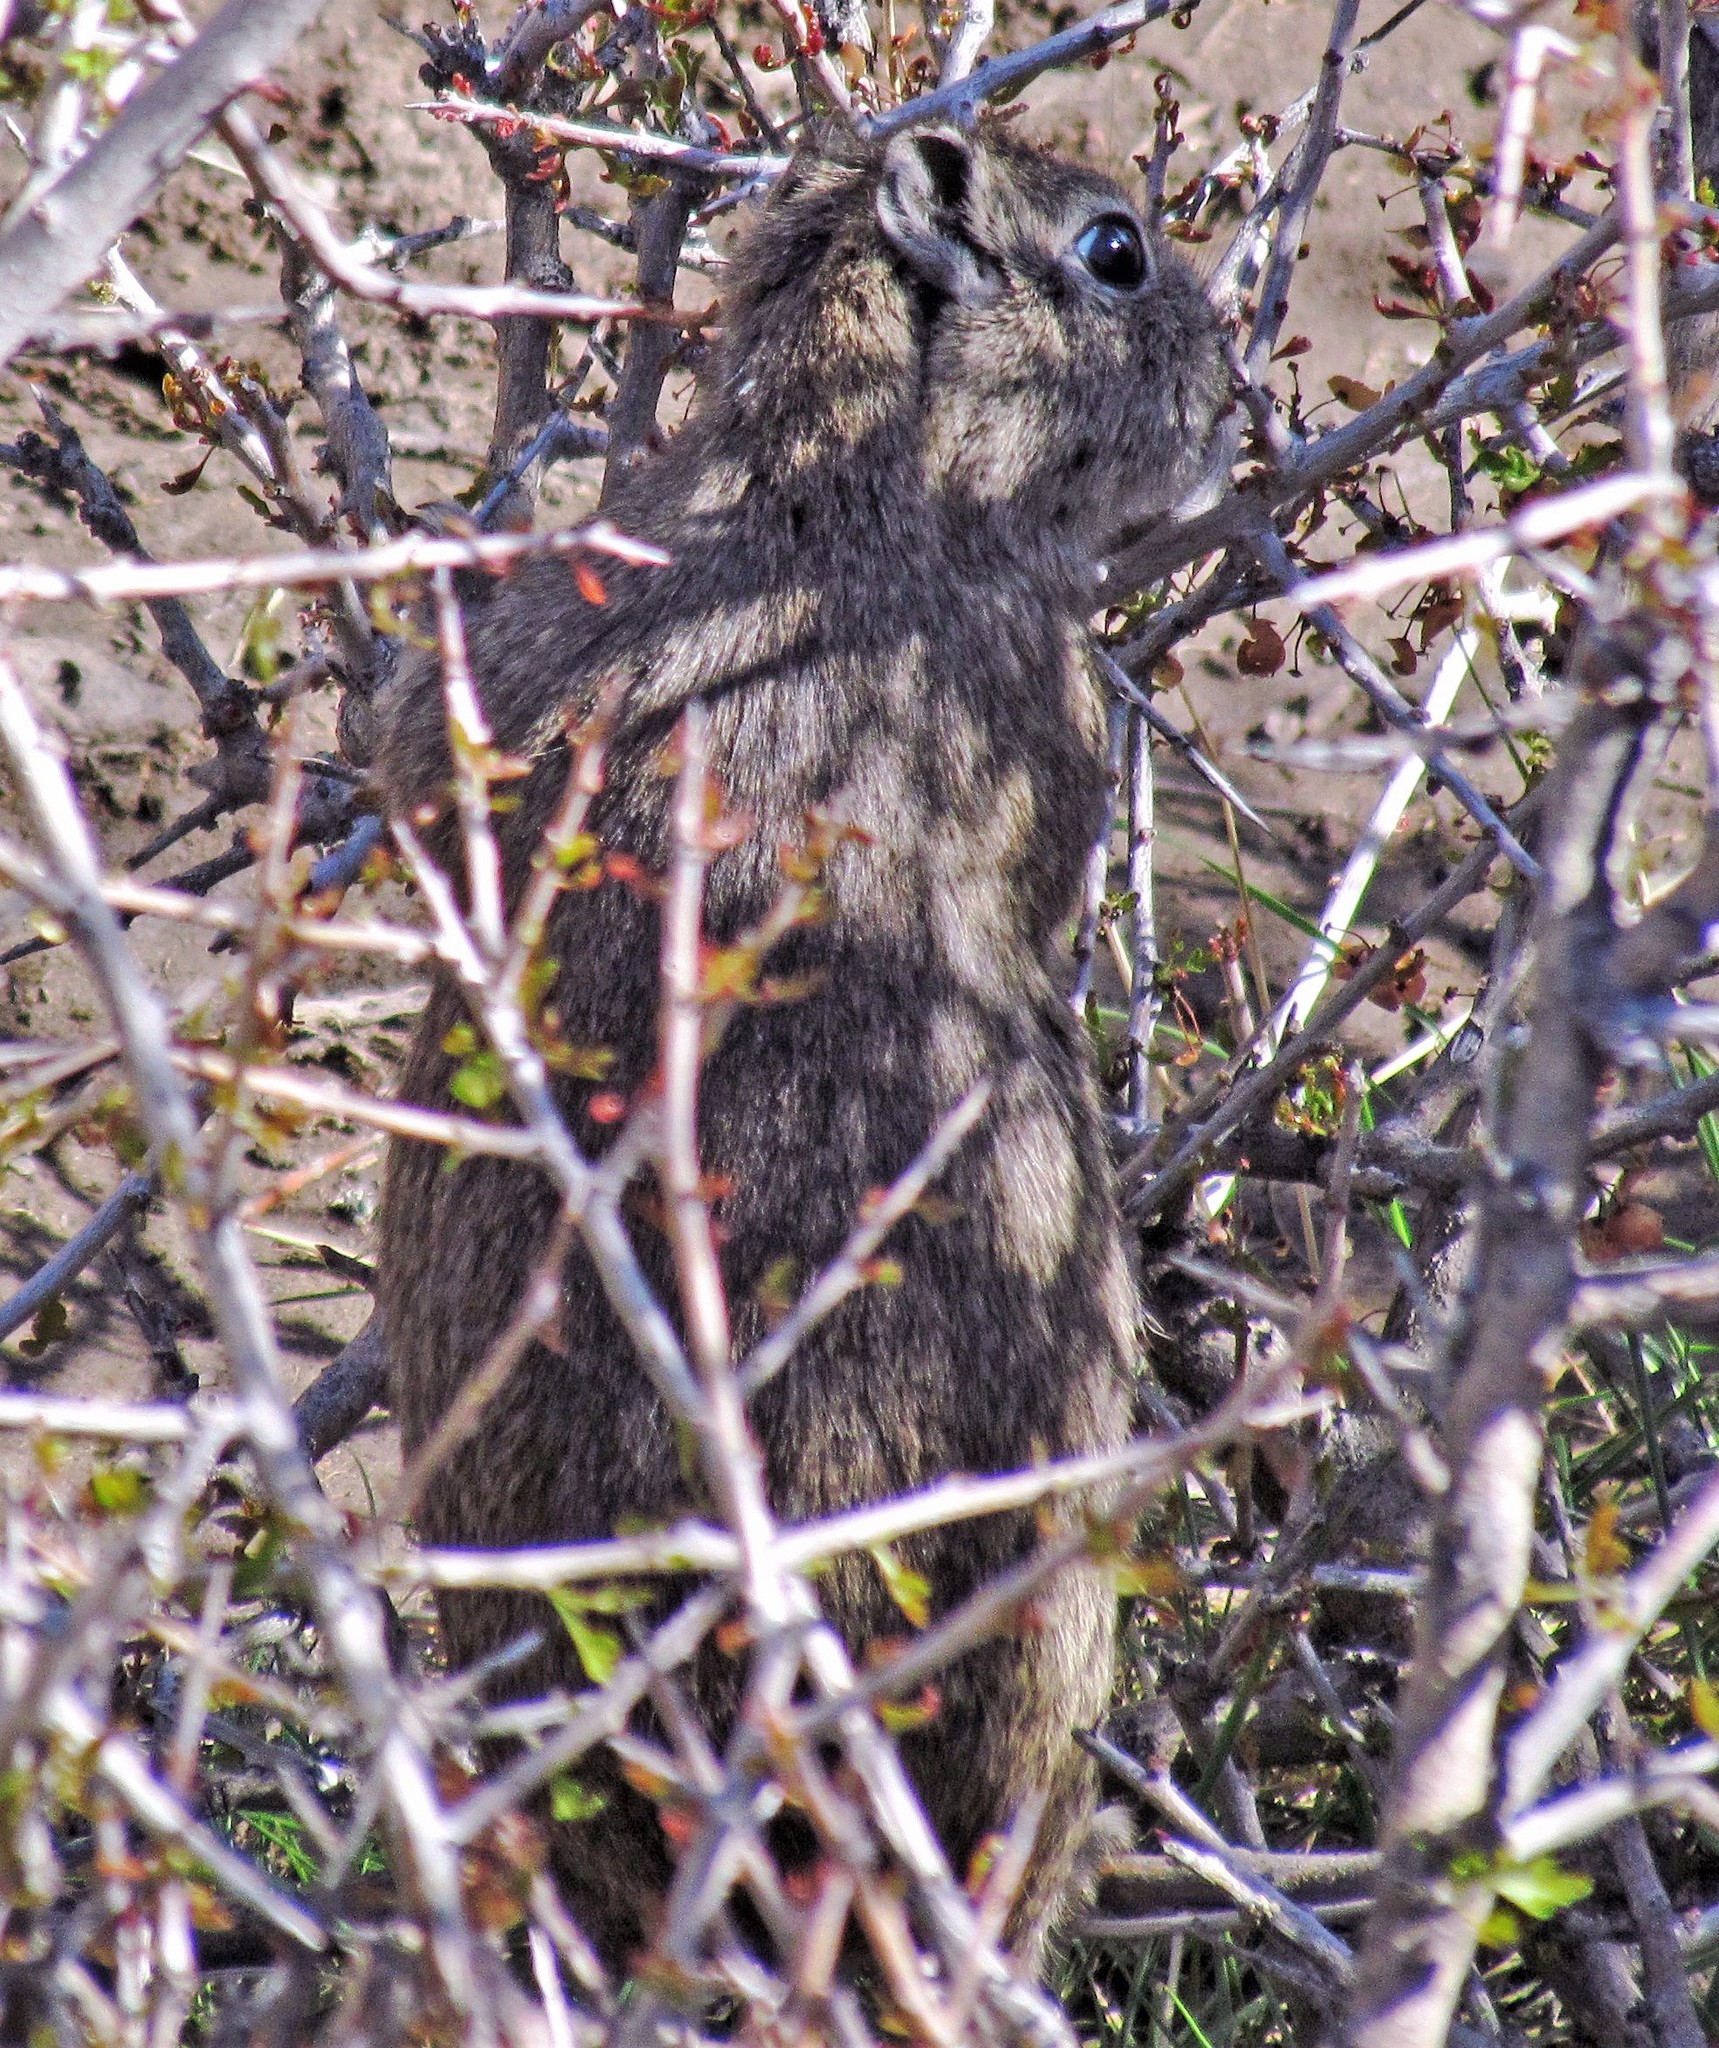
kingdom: Animalia
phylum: Chordata
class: Mammalia
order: Rodentia
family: Caviidae
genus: Microcavia
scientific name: Microcavia australis
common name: Southern mountain cavy
